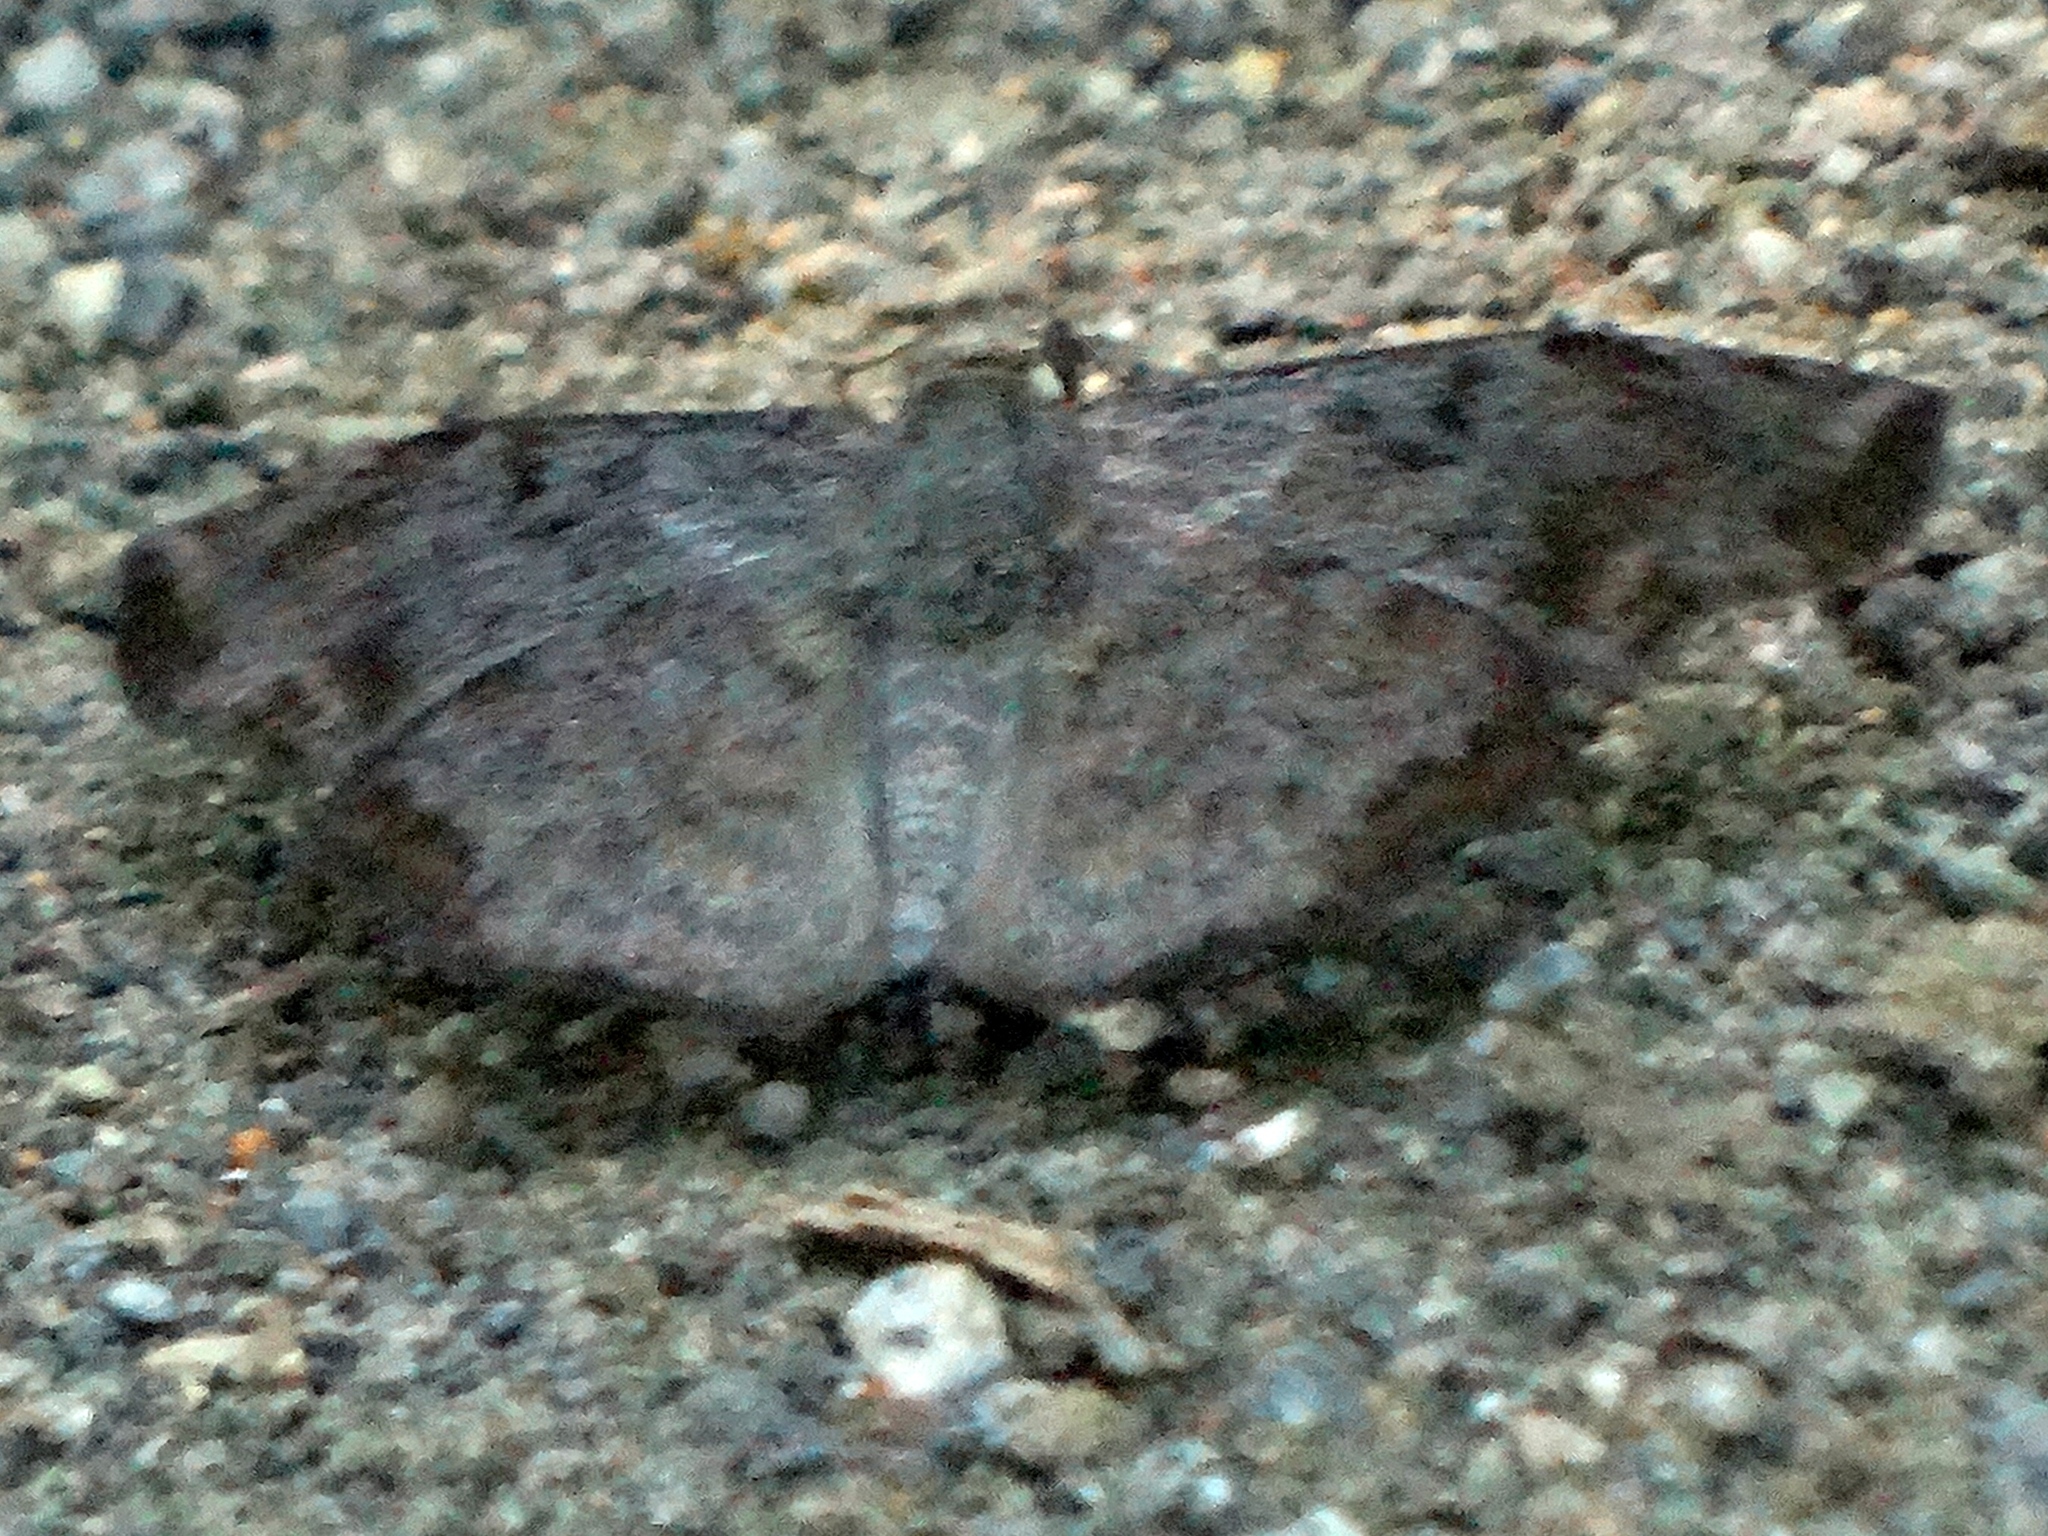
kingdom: Animalia
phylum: Arthropoda
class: Insecta
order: Lepidoptera
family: Hesperiidae
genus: Antigonus
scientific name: Antigonus erosus
